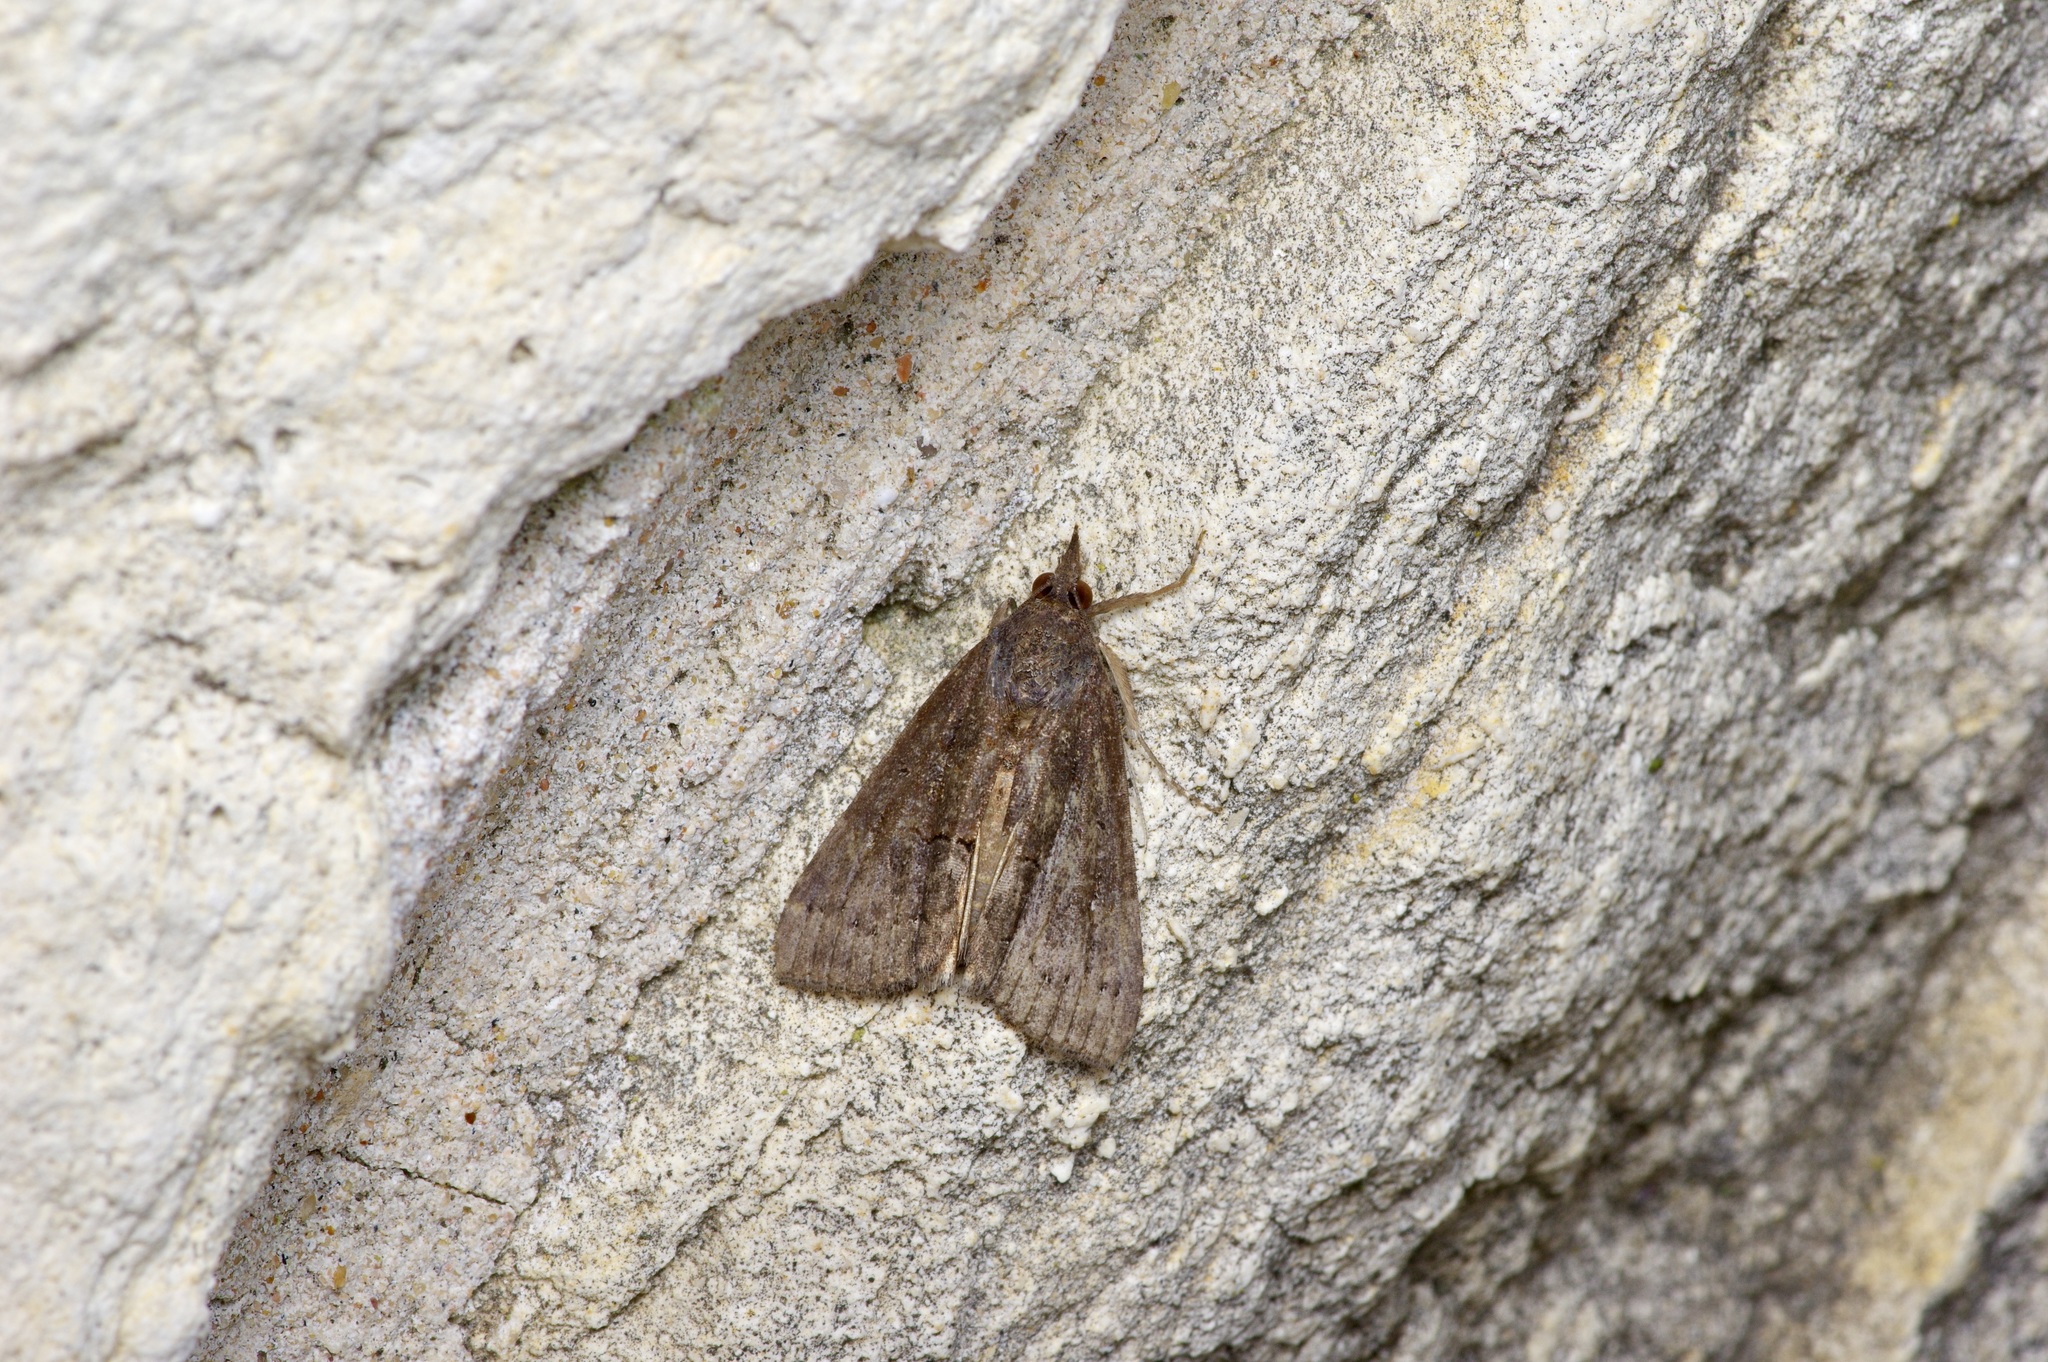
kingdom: Animalia
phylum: Arthropoda
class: Insecta
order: Lepidoptera
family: Erebidae
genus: Hypena
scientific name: Hypena scabra
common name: Green cloverworm
